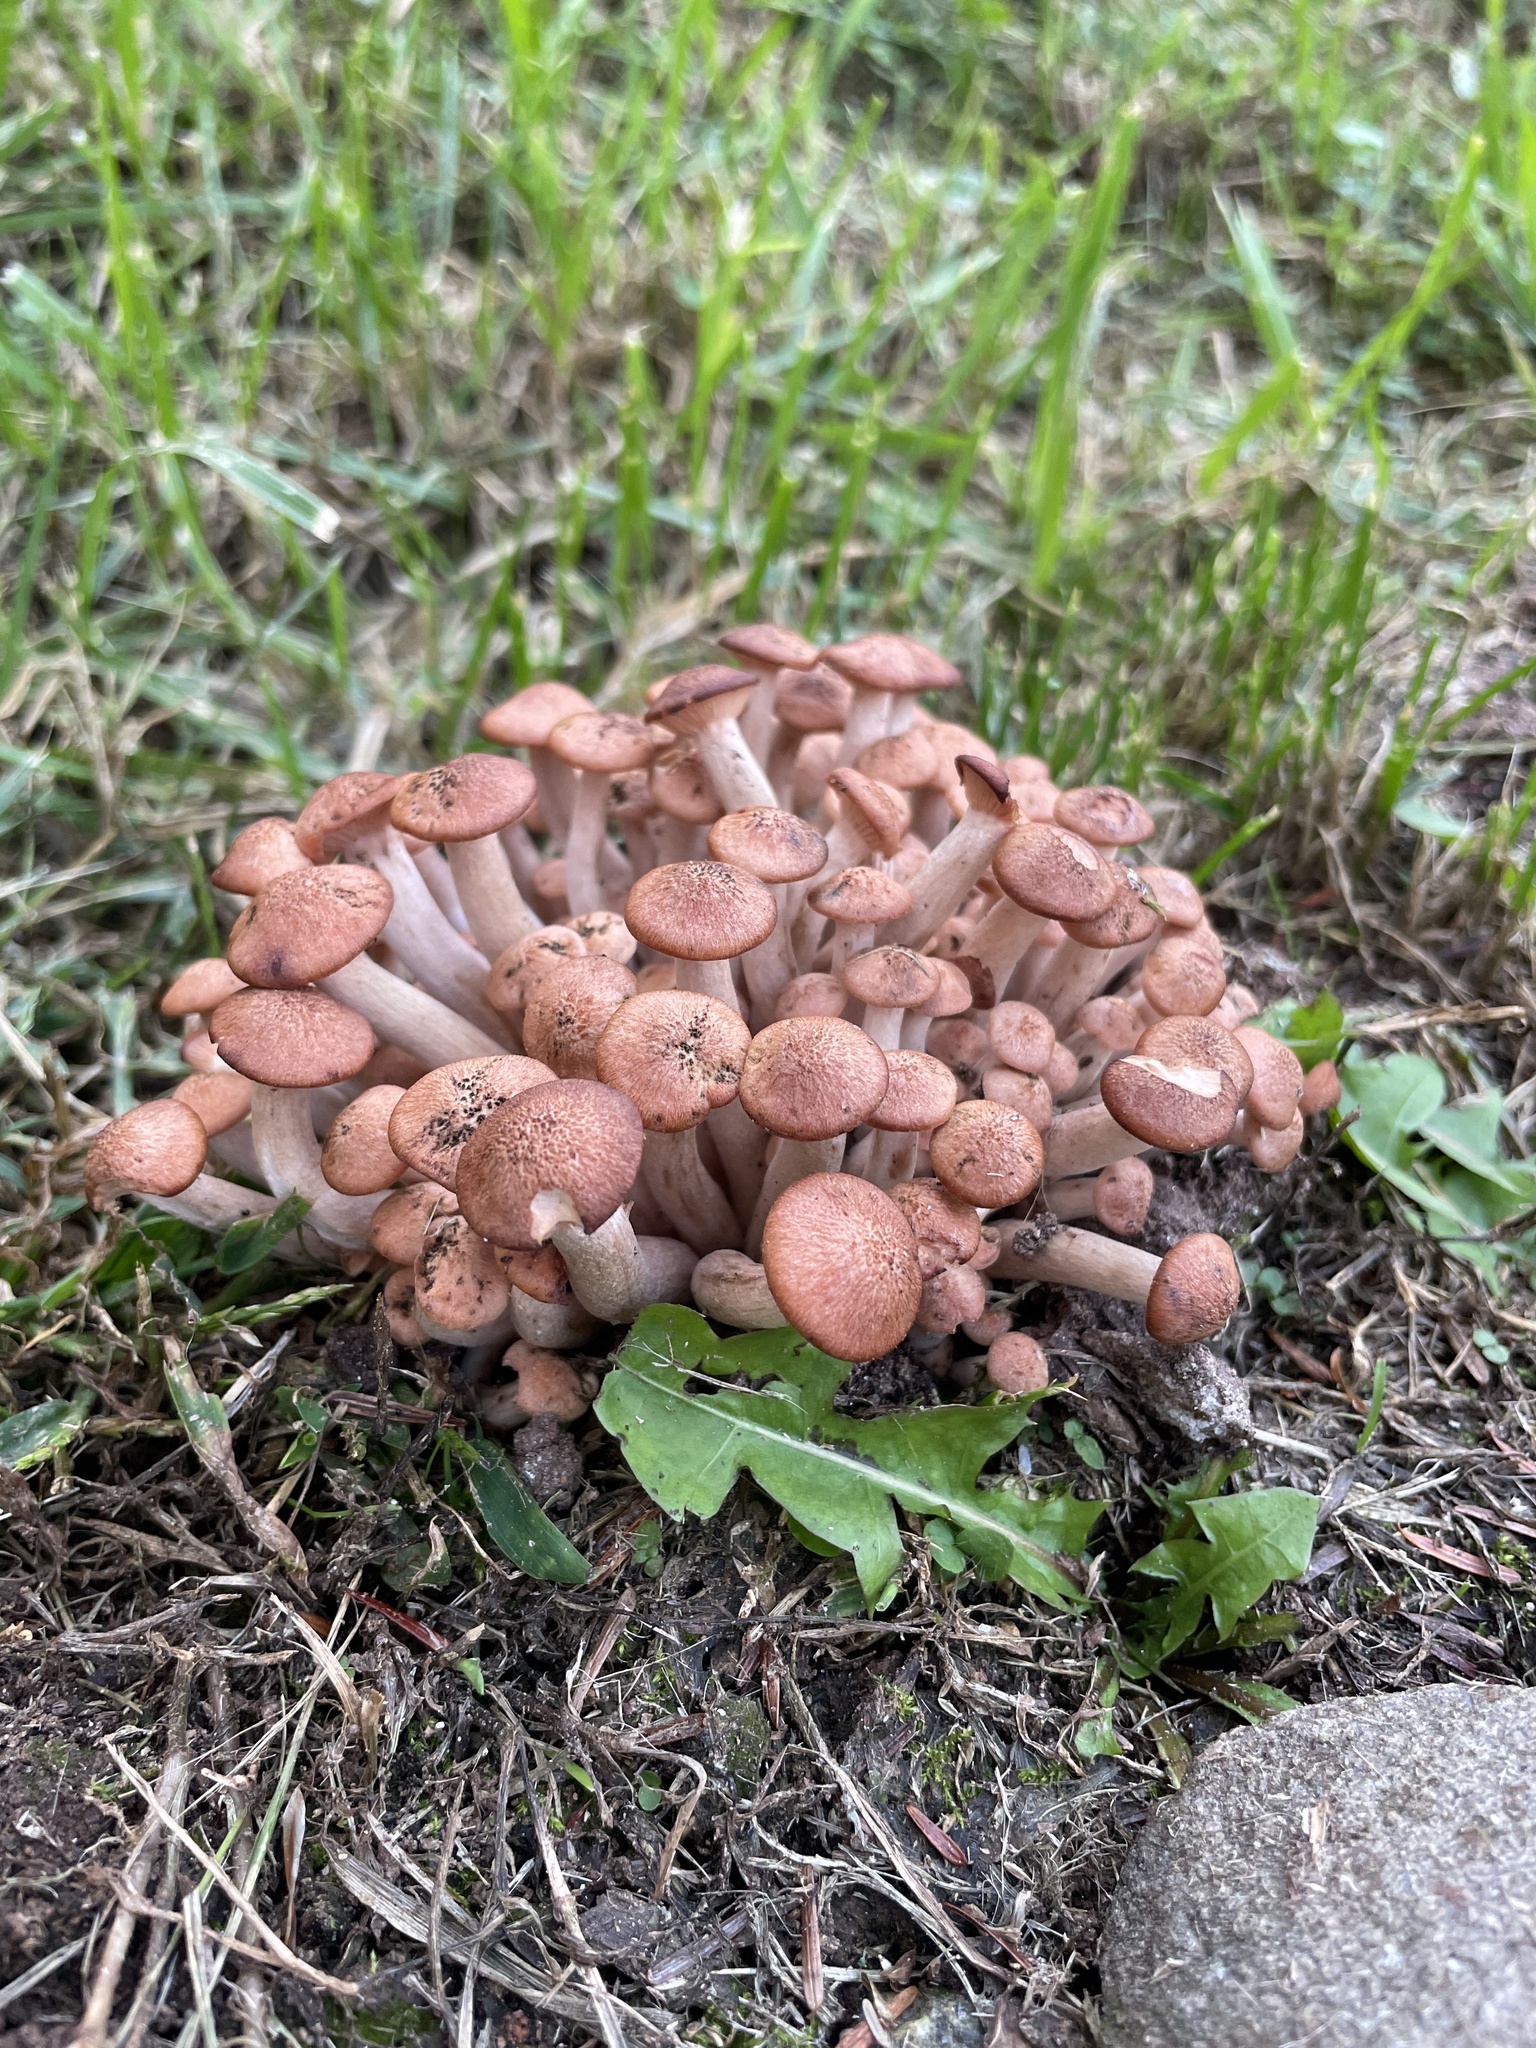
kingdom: Fungi
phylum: Basidiomycota
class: Agaricomycetes
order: Agaricales
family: Physalacriaceae
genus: Desarmillaria
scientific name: Desarmillaria caespitosa
